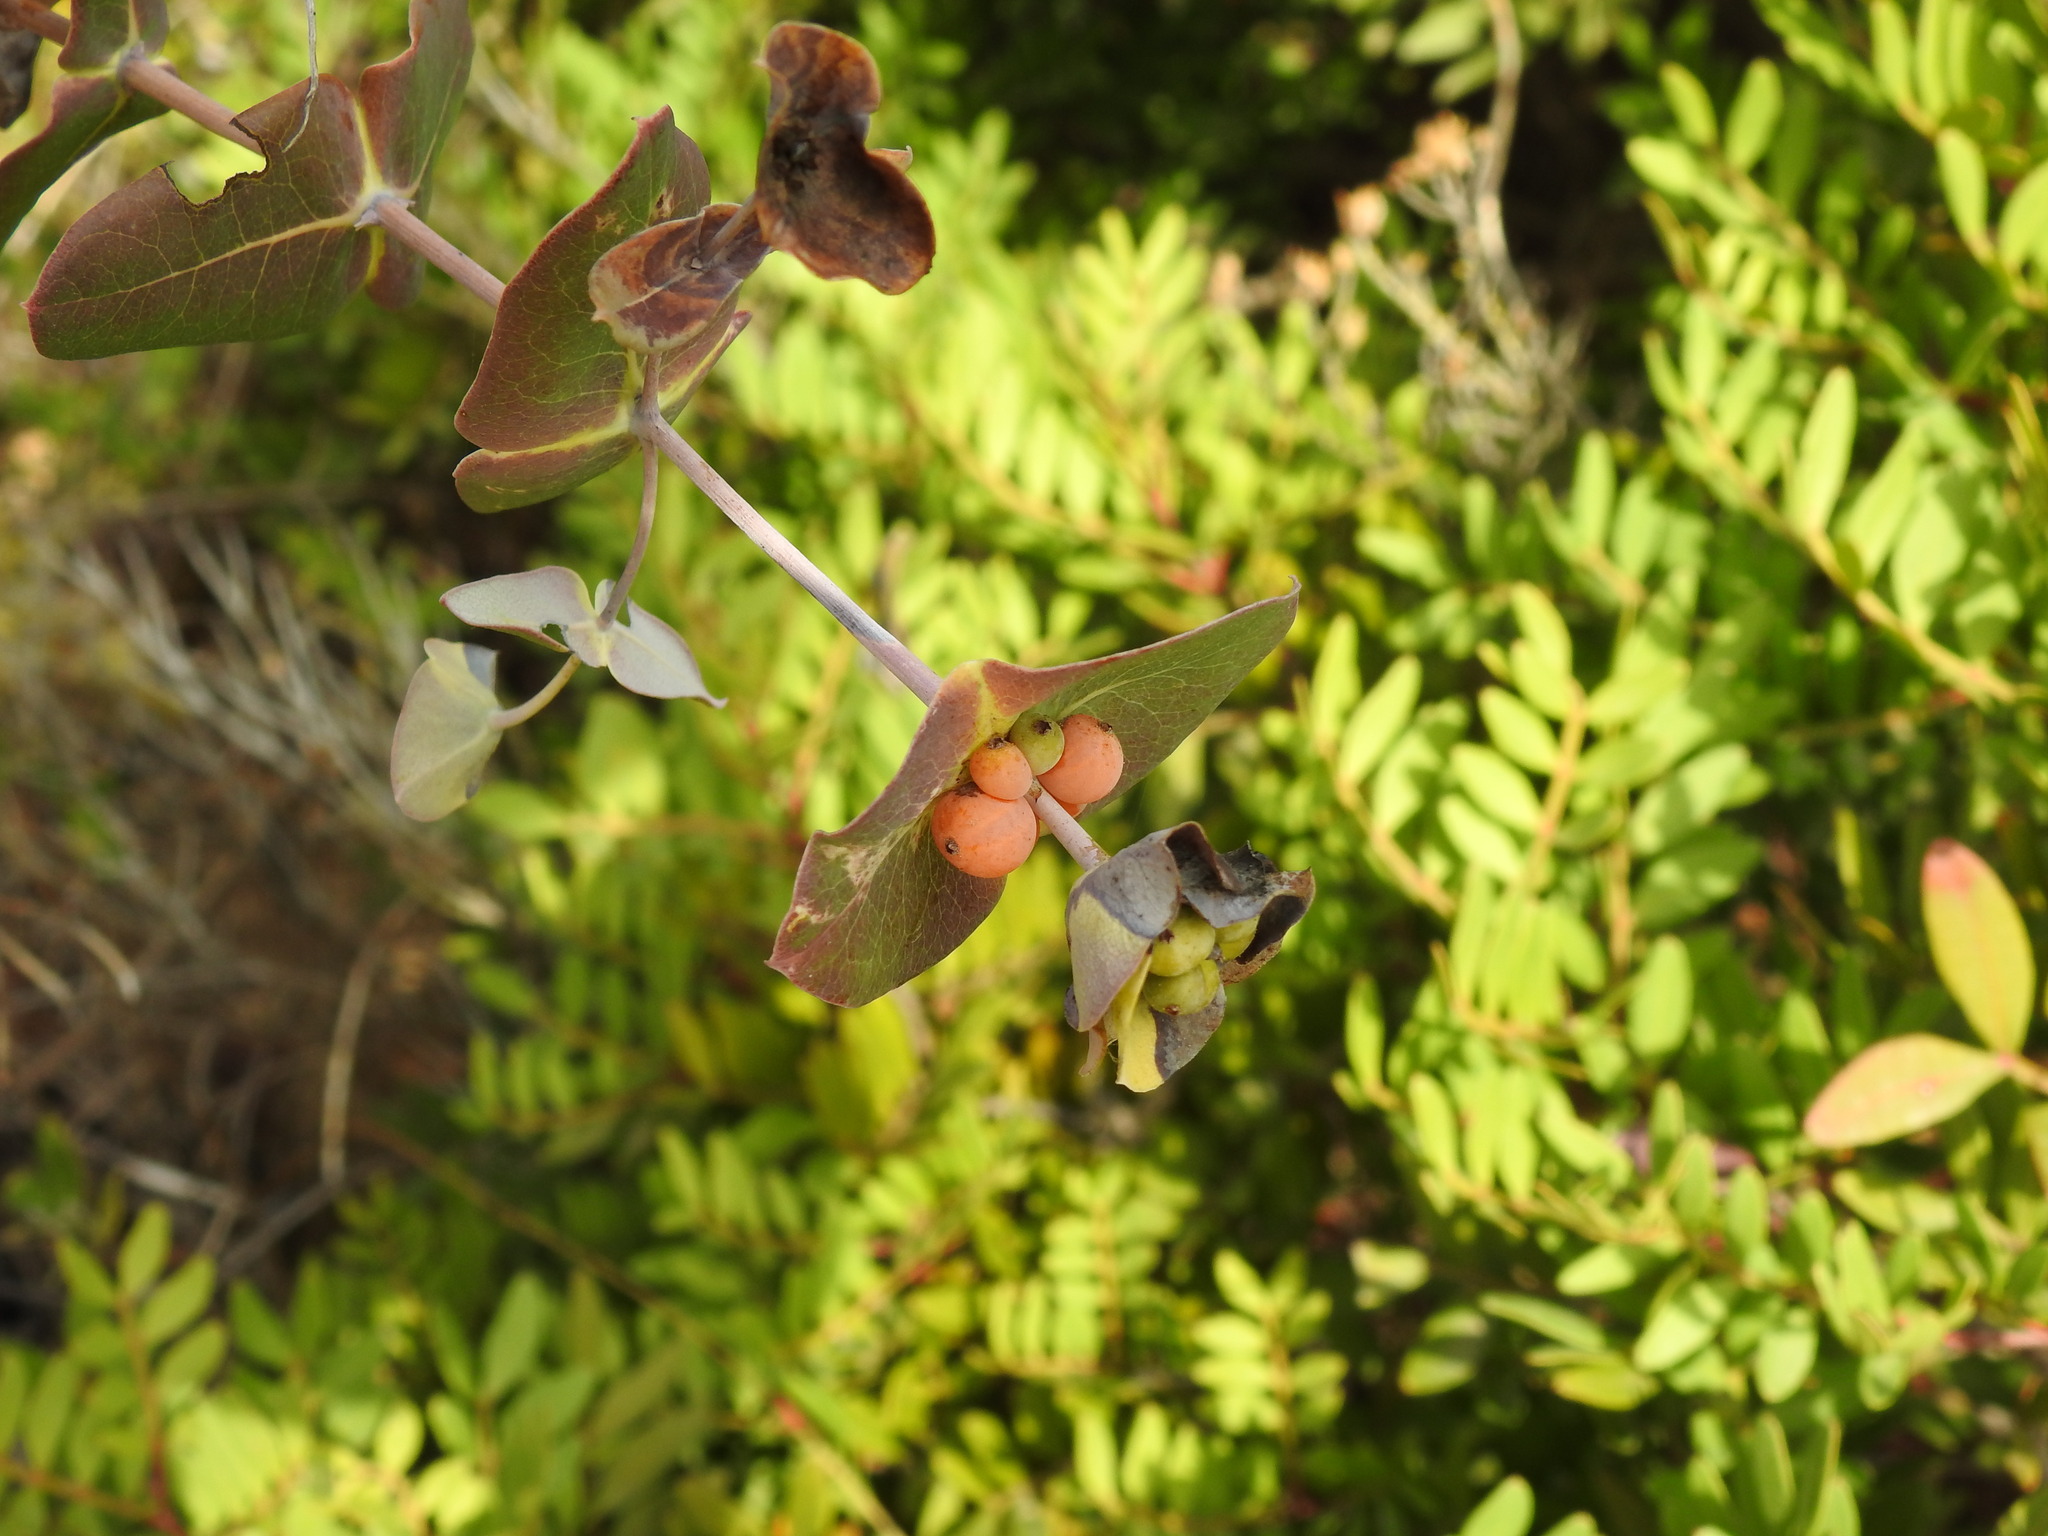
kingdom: Plantae
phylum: Tracheophyta
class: Magnoliopsida
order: Dipsacales
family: Caprifoliaceae
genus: Lonicera
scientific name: Lonicera implexa
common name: Minorca honeysuckle
